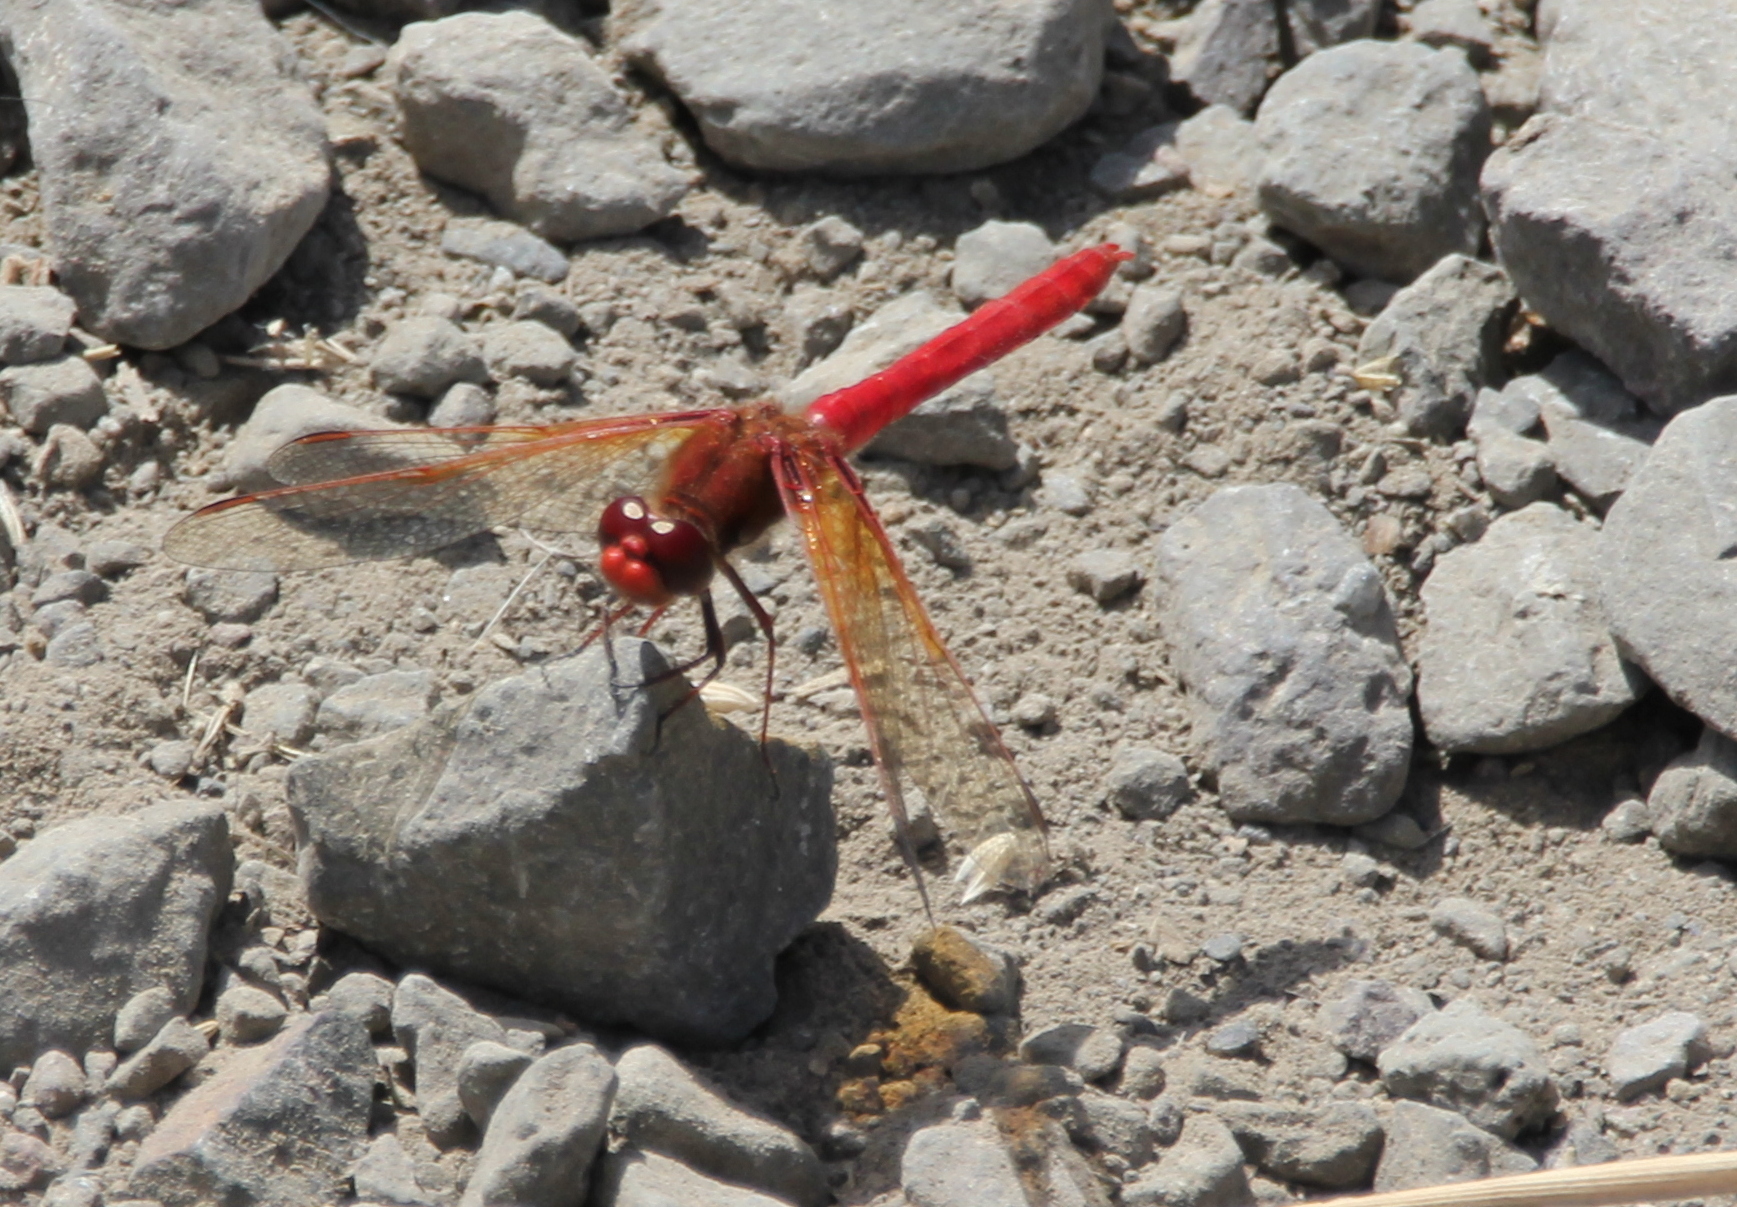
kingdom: Animalia
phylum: Arthropoda
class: Insecta
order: Odonata
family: Libellulidae
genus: Sympetrum
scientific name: Sympetrum illotum
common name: Cardinal meadowhawk
